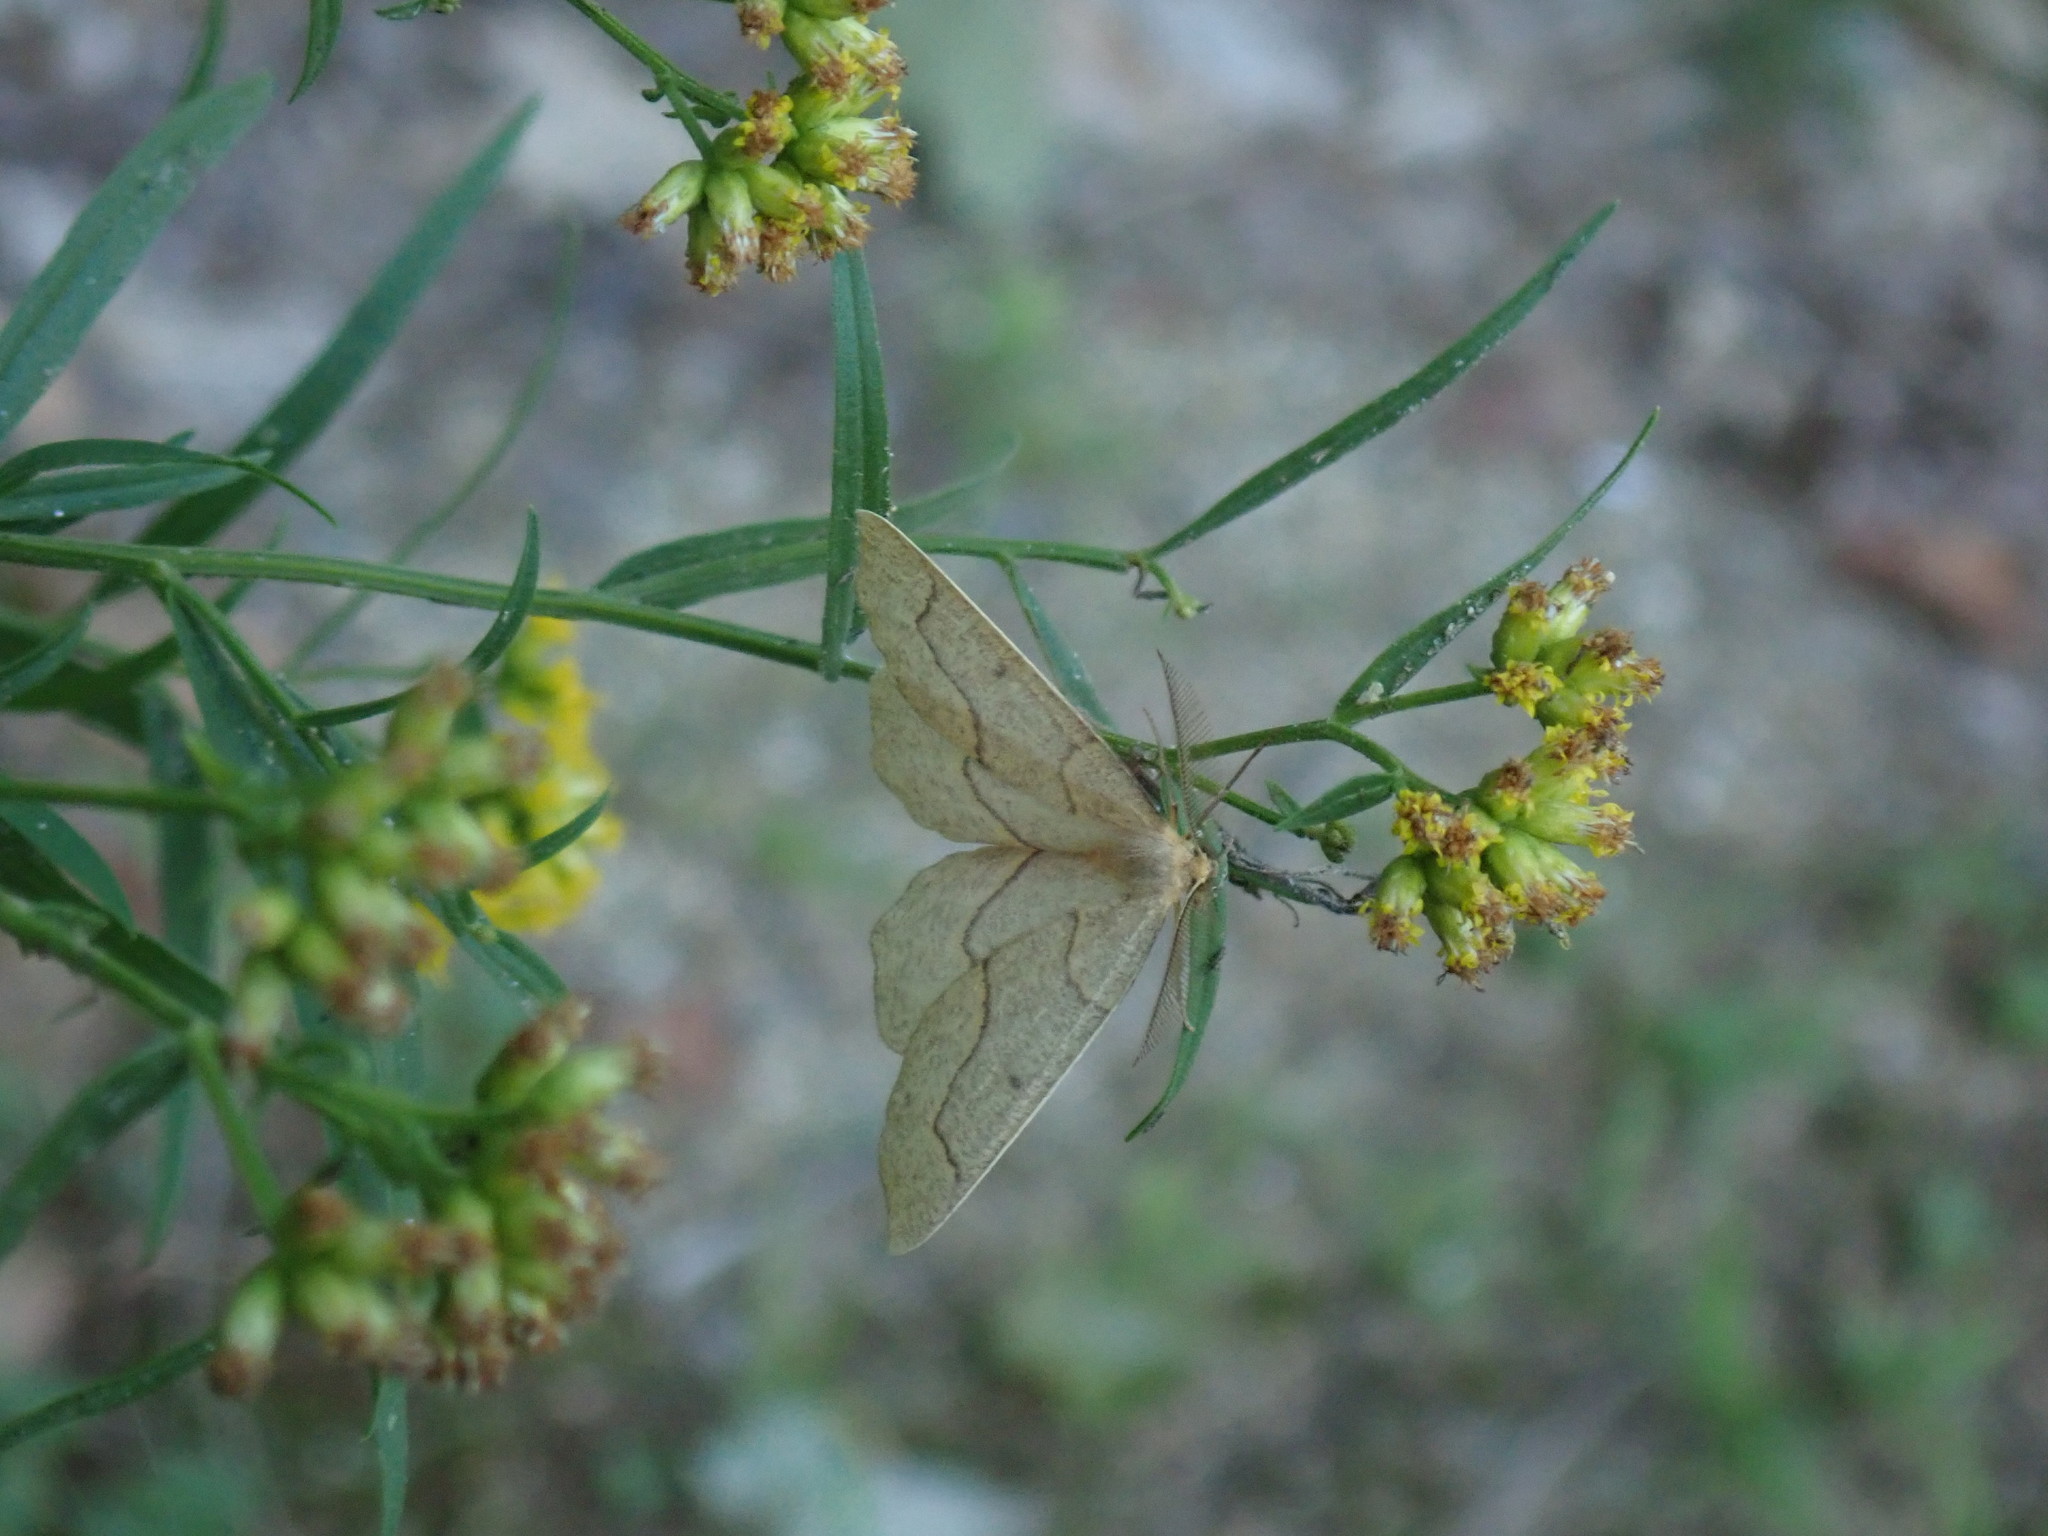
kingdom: Animalia
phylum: Arthropoda
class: Insecta
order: Lepidoptera
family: Geometridae
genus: Lambdina
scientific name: Lambdina fiscellaria
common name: Hemlock looper
